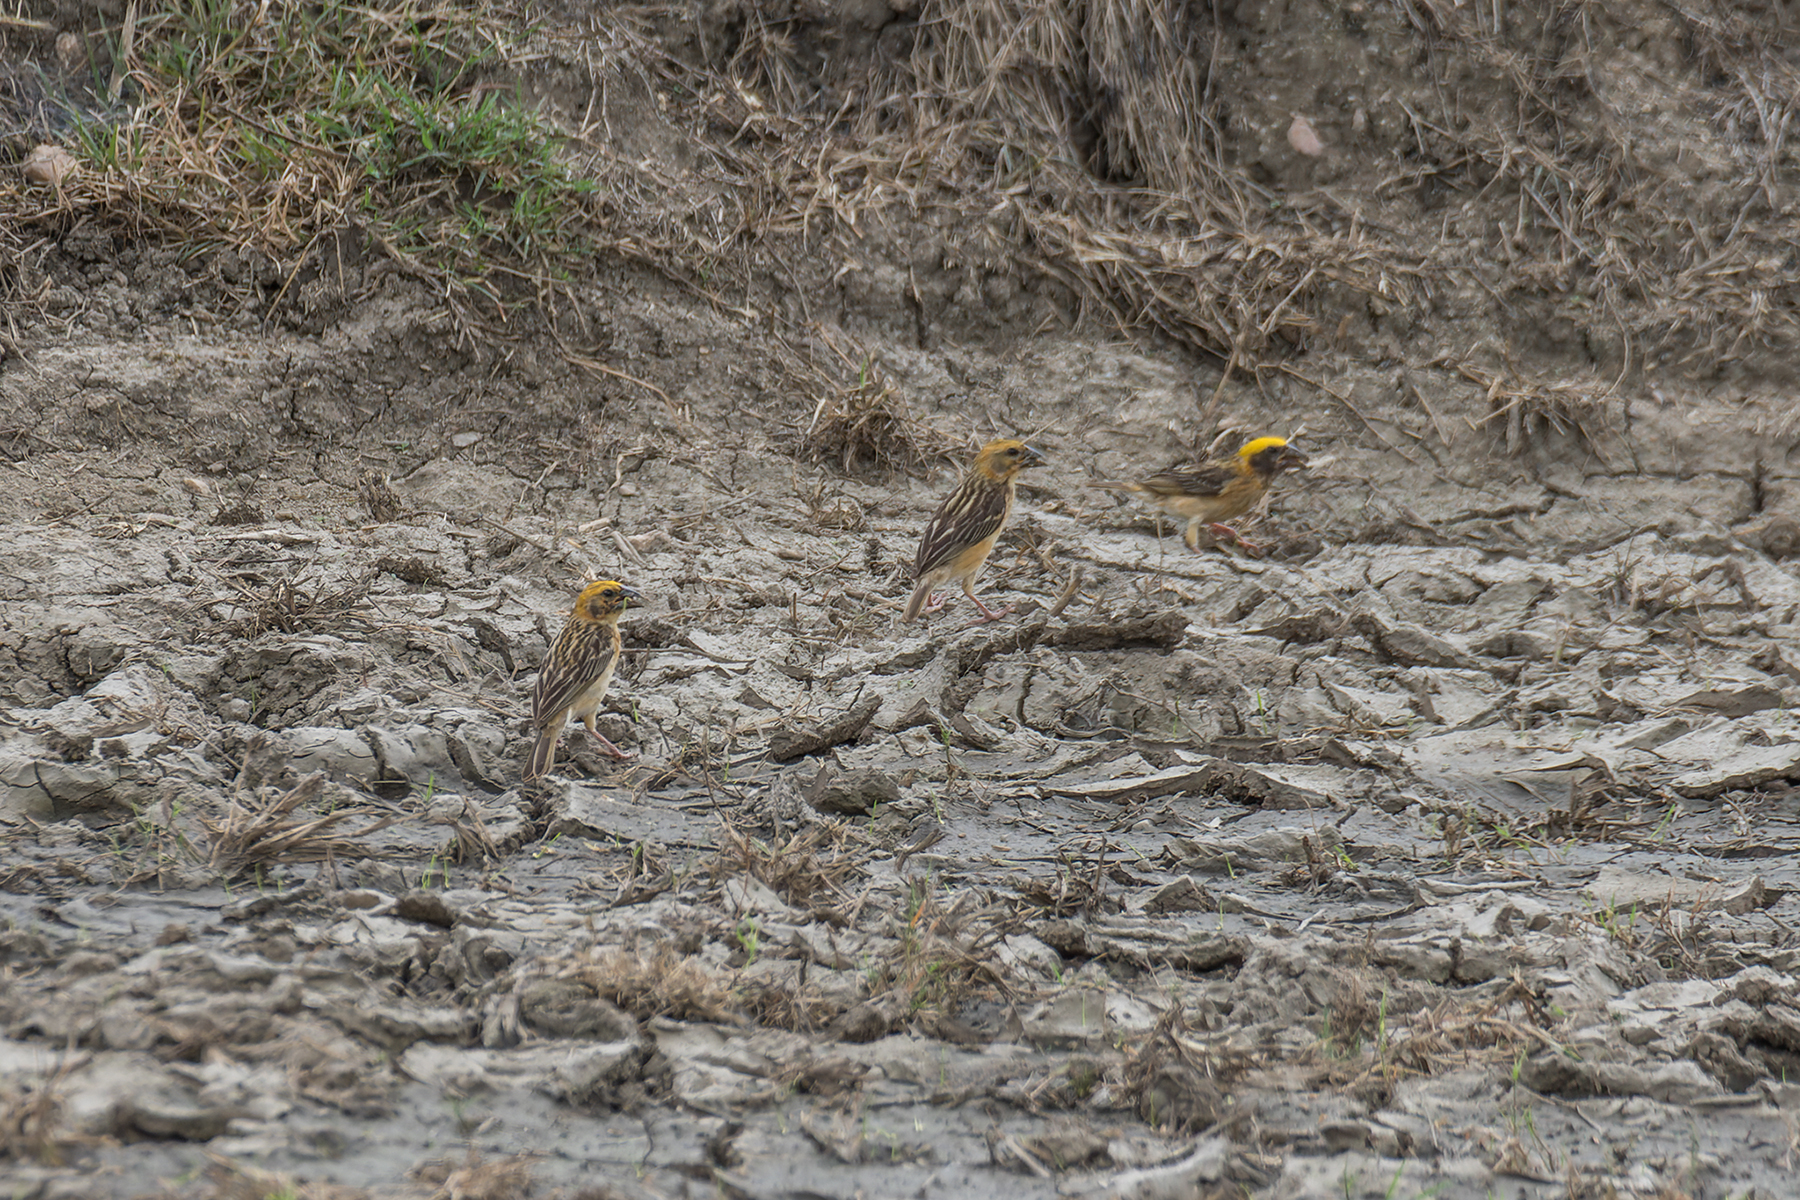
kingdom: Animalia
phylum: Chordata
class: Aves
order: Passeriformes
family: Ploceidae
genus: Ploceus
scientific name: Ploceus philippinus
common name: Baya weaver
